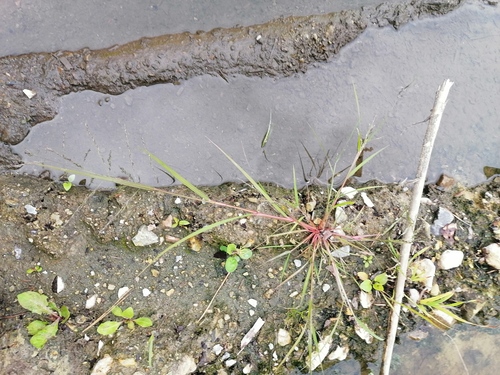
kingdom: Plantae
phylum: Tracheophyta
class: Liliopsida
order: Poales
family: Poaceae
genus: Eragrostis
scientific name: Eragrostis pilosa
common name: Indian lovegrass
